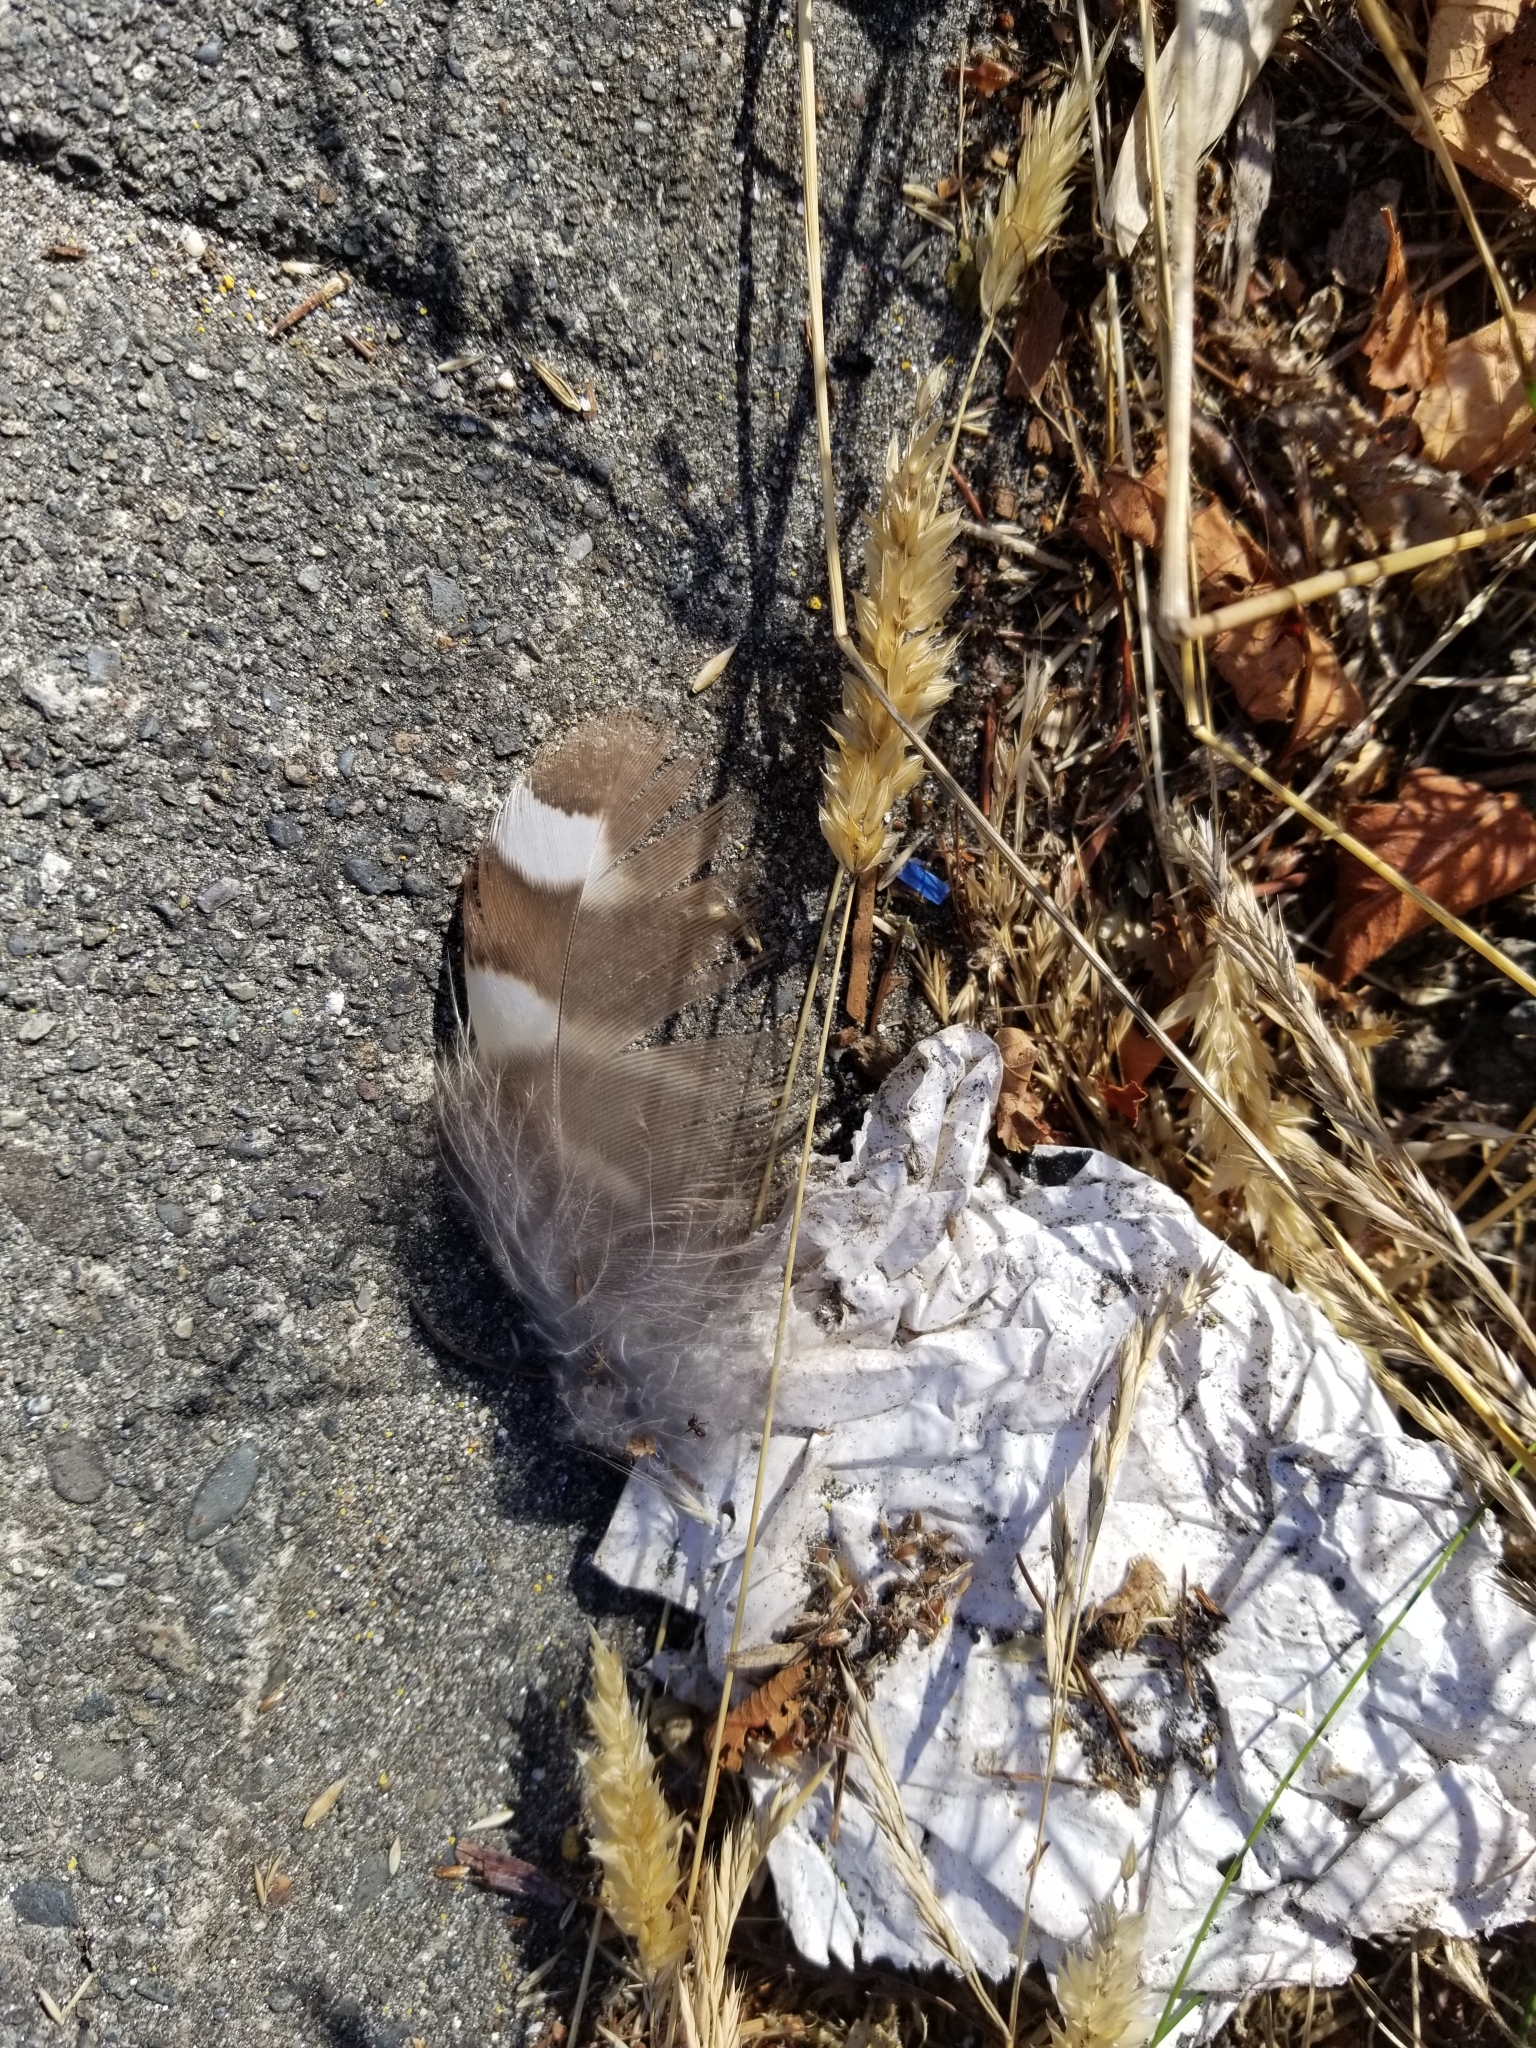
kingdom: Animalia
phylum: Chordata
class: Aves
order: Strigiformes
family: Strigidae
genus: Strix
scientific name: Strix varia
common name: Barred owl
